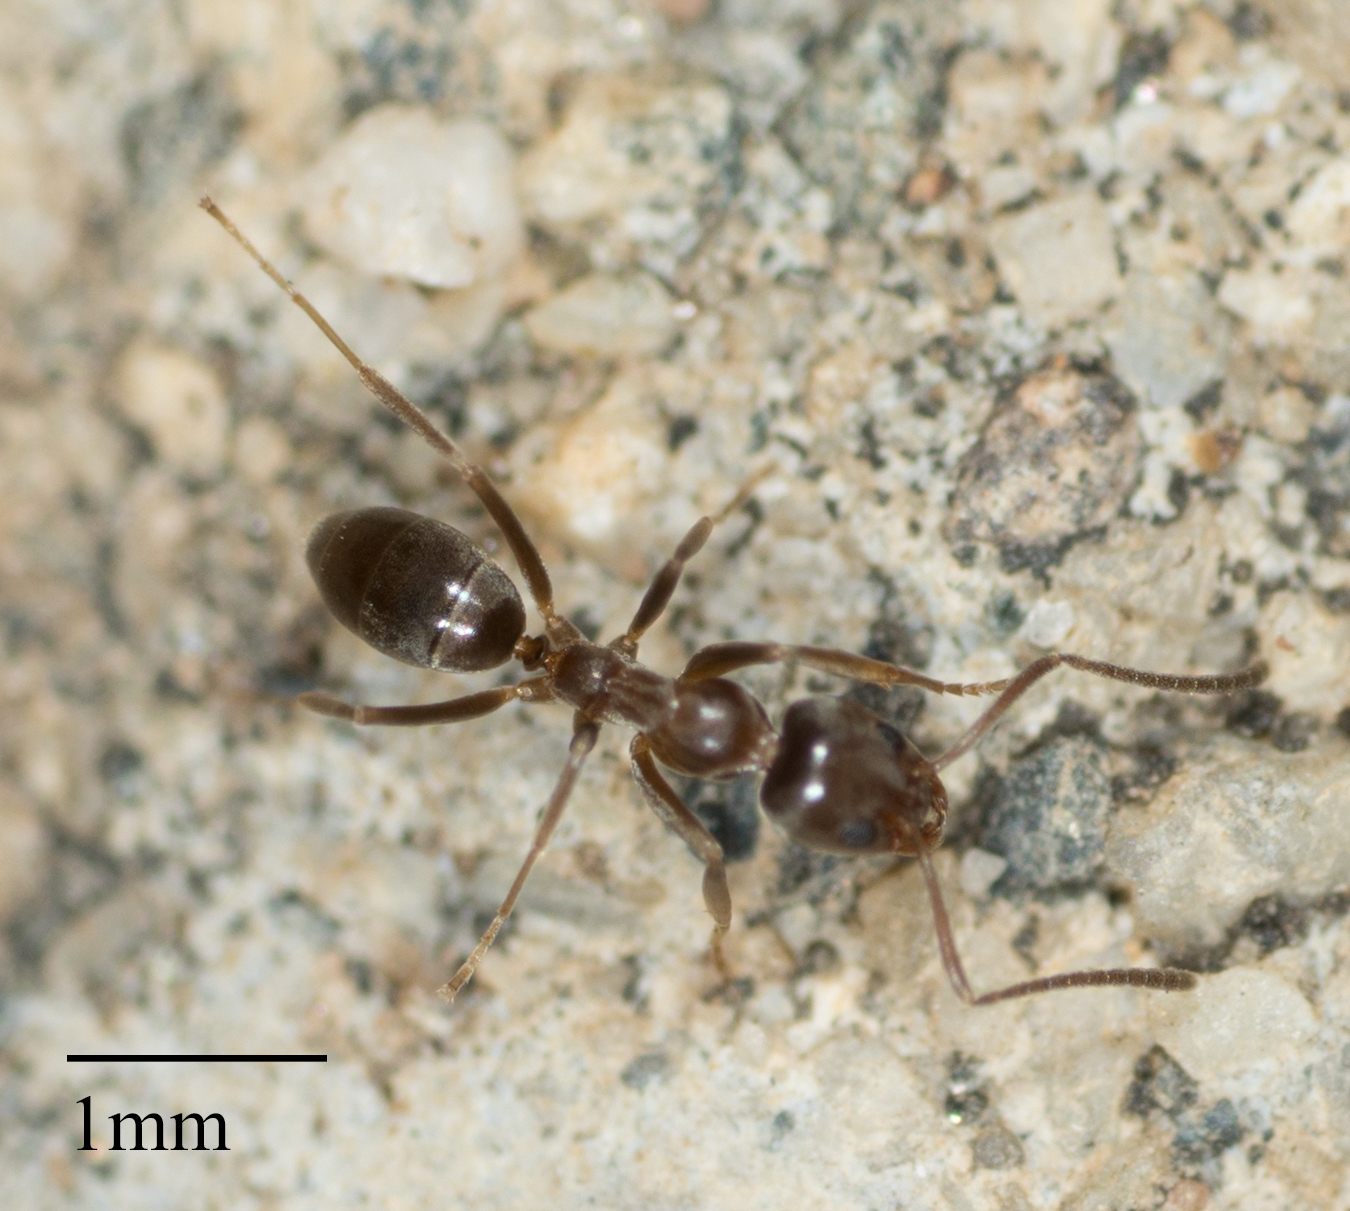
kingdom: Animalia
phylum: Arthropoda
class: Insecta
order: Hymenoptera
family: Formicidae
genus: Linepithema
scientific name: Linepithema humile
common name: Argentine ant
